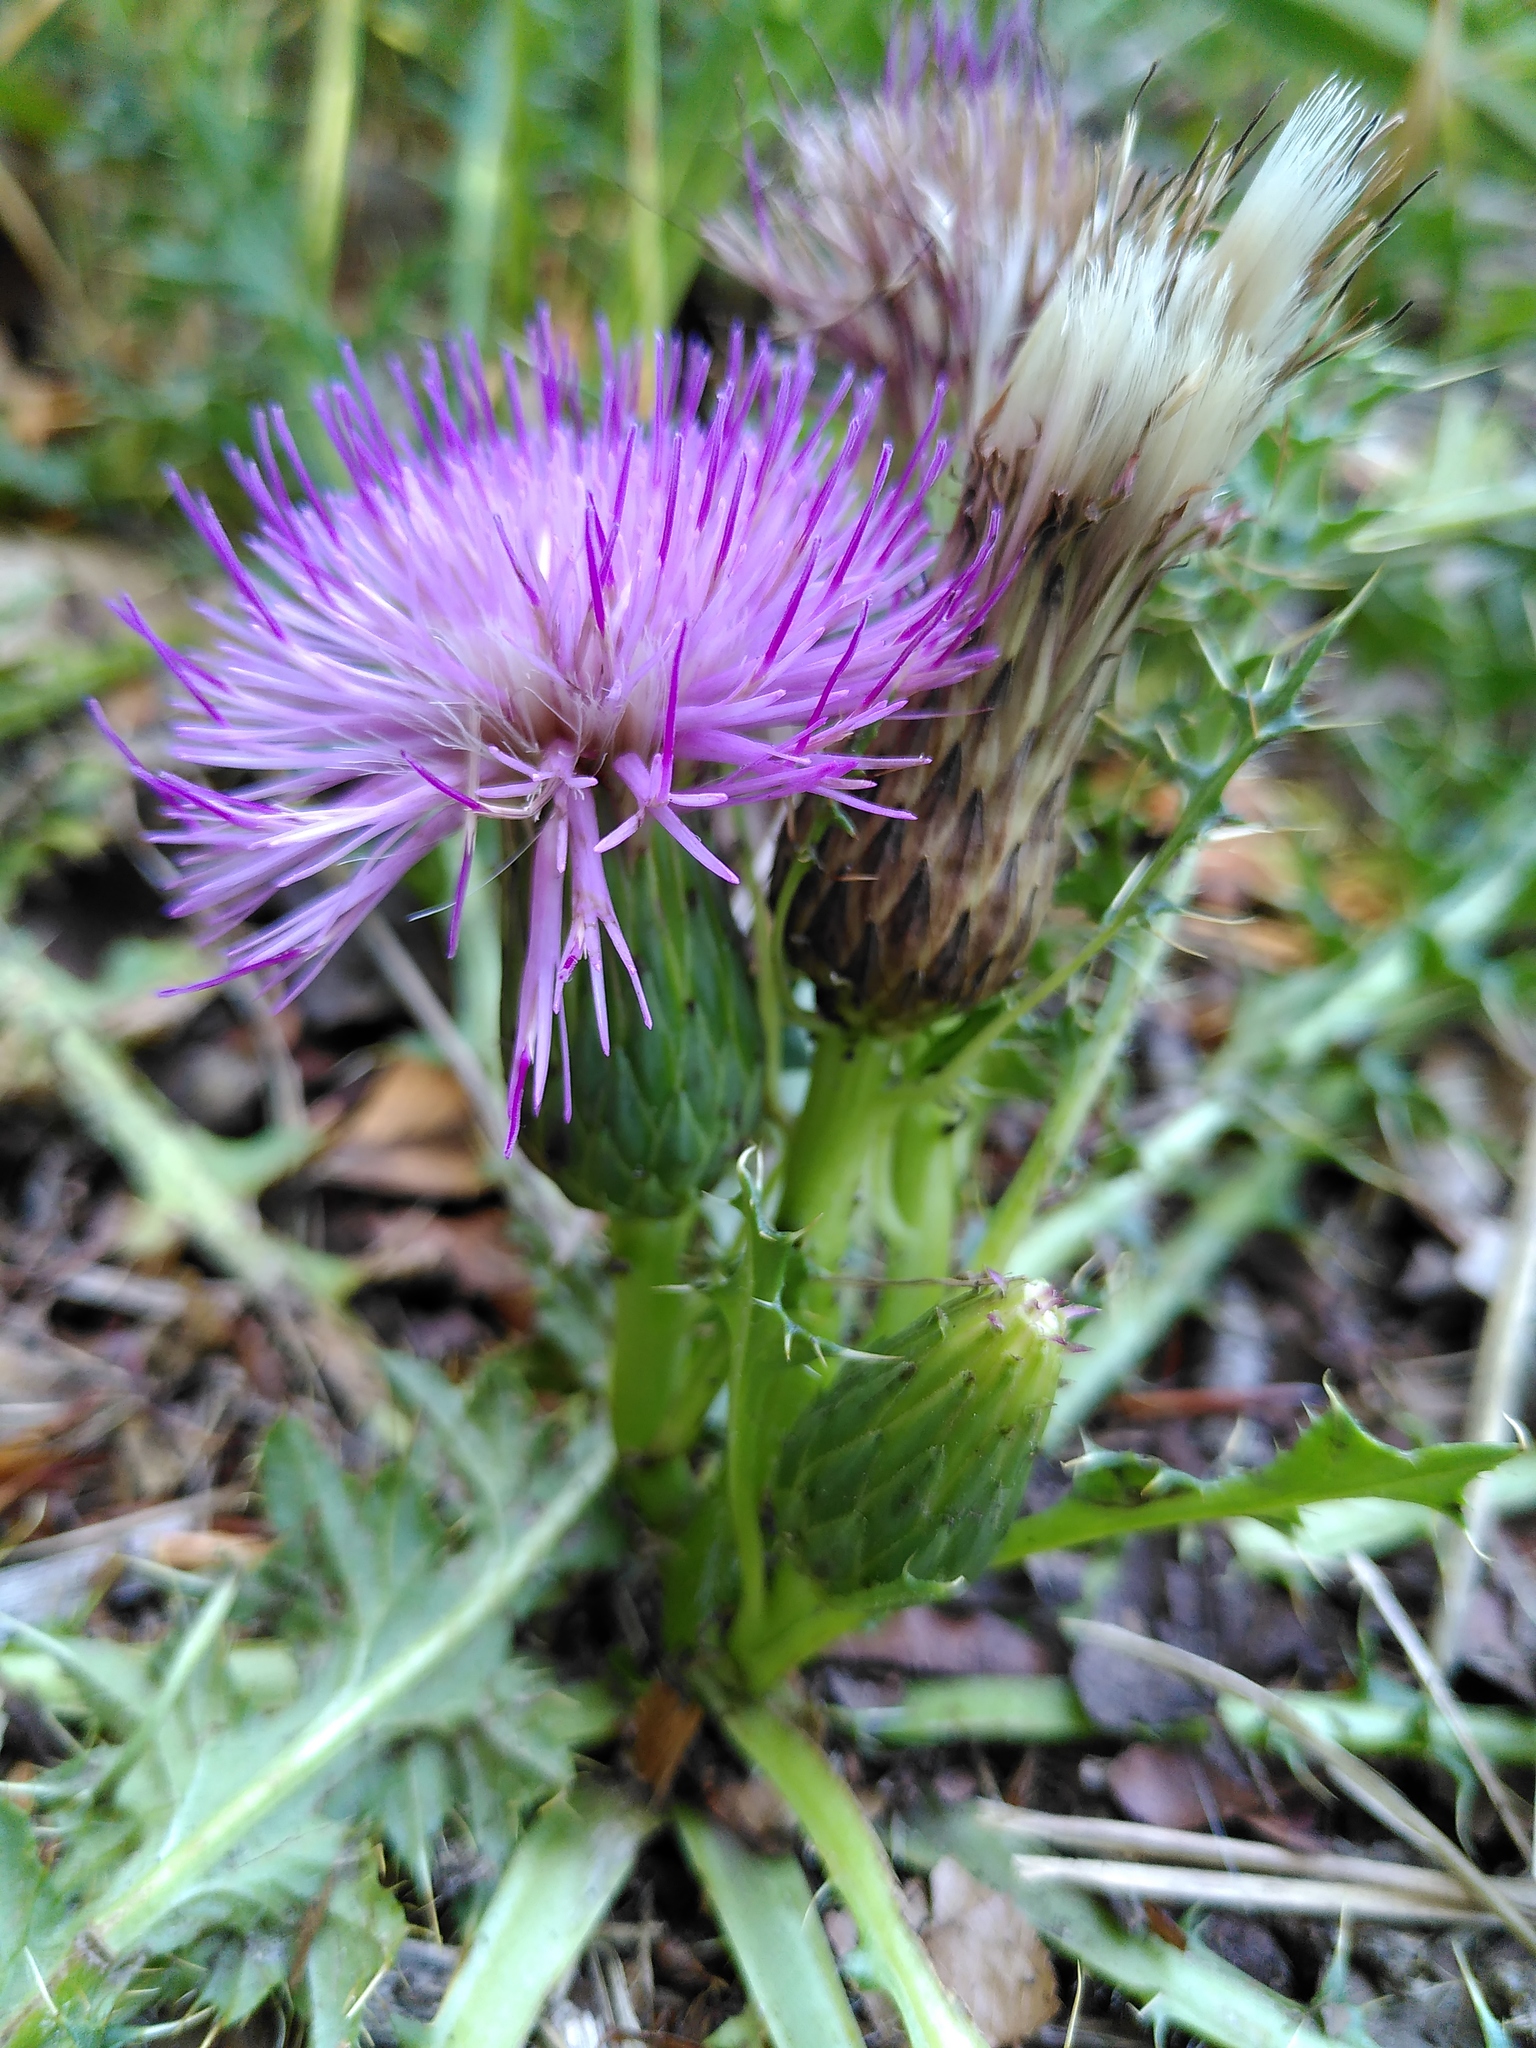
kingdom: Plantae
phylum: Tracheophyta
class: Magnoliopsida
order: Asterales
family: Asteraceae
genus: Cirsium
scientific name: Cirsium acaulon
